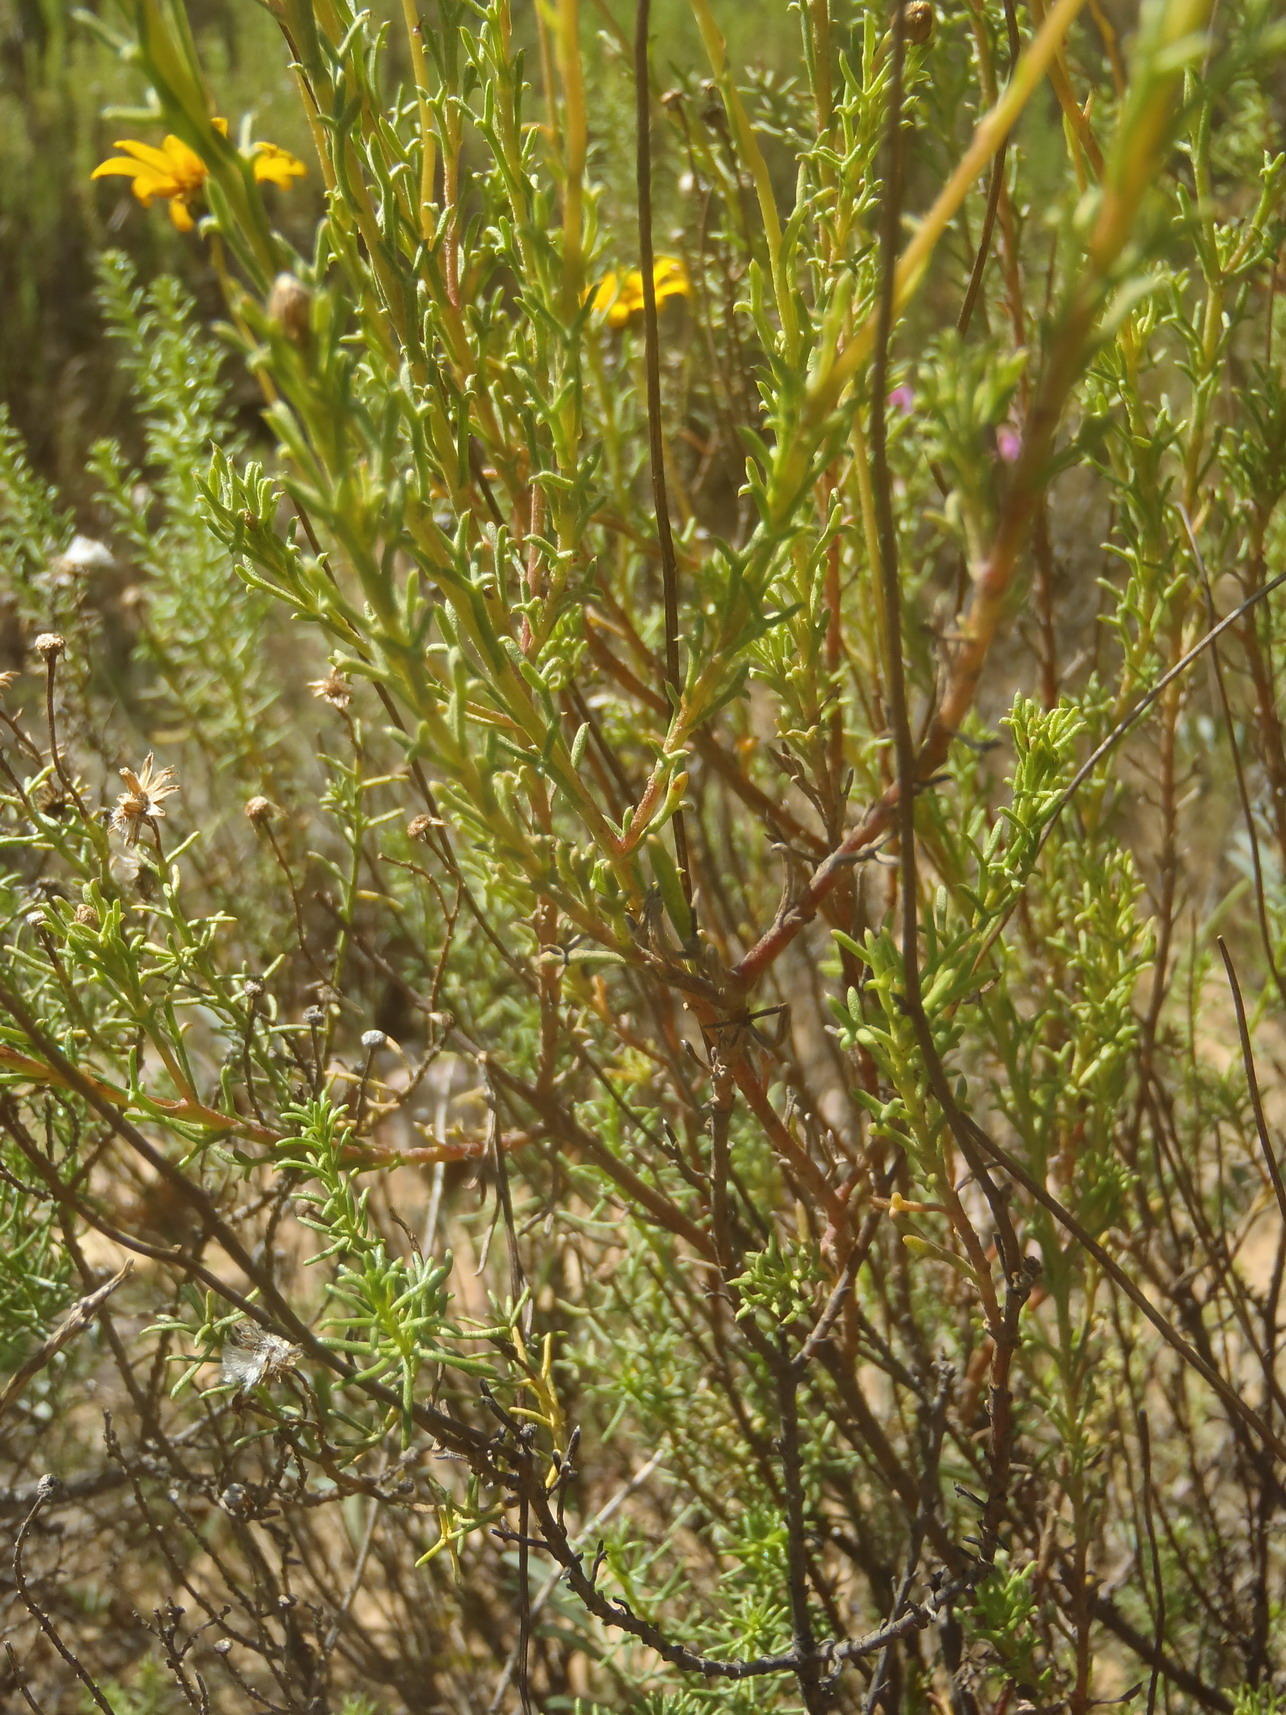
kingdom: Plantae
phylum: Tracheophyta
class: Magnoliopsida
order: Asterales
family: Asteraceae
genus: Ursinia
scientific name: Ursinia trifida
